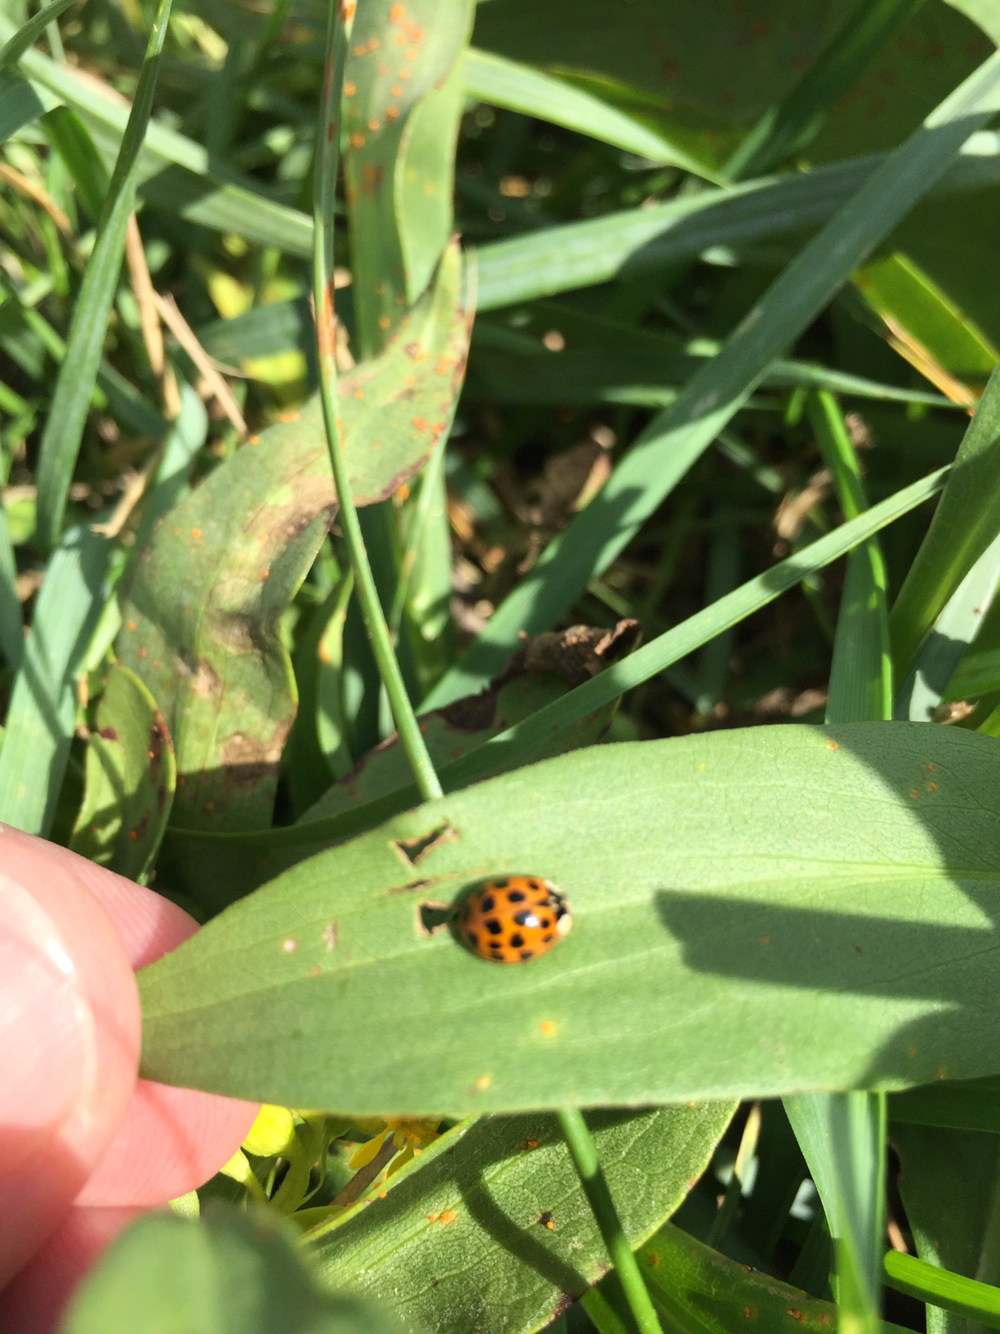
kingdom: Animalia
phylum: Arthropoda
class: Insecta
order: Coleoptera
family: Coccinellidae
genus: Harmonia
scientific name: Harmonia axyridis
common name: Harlequin ladybird
